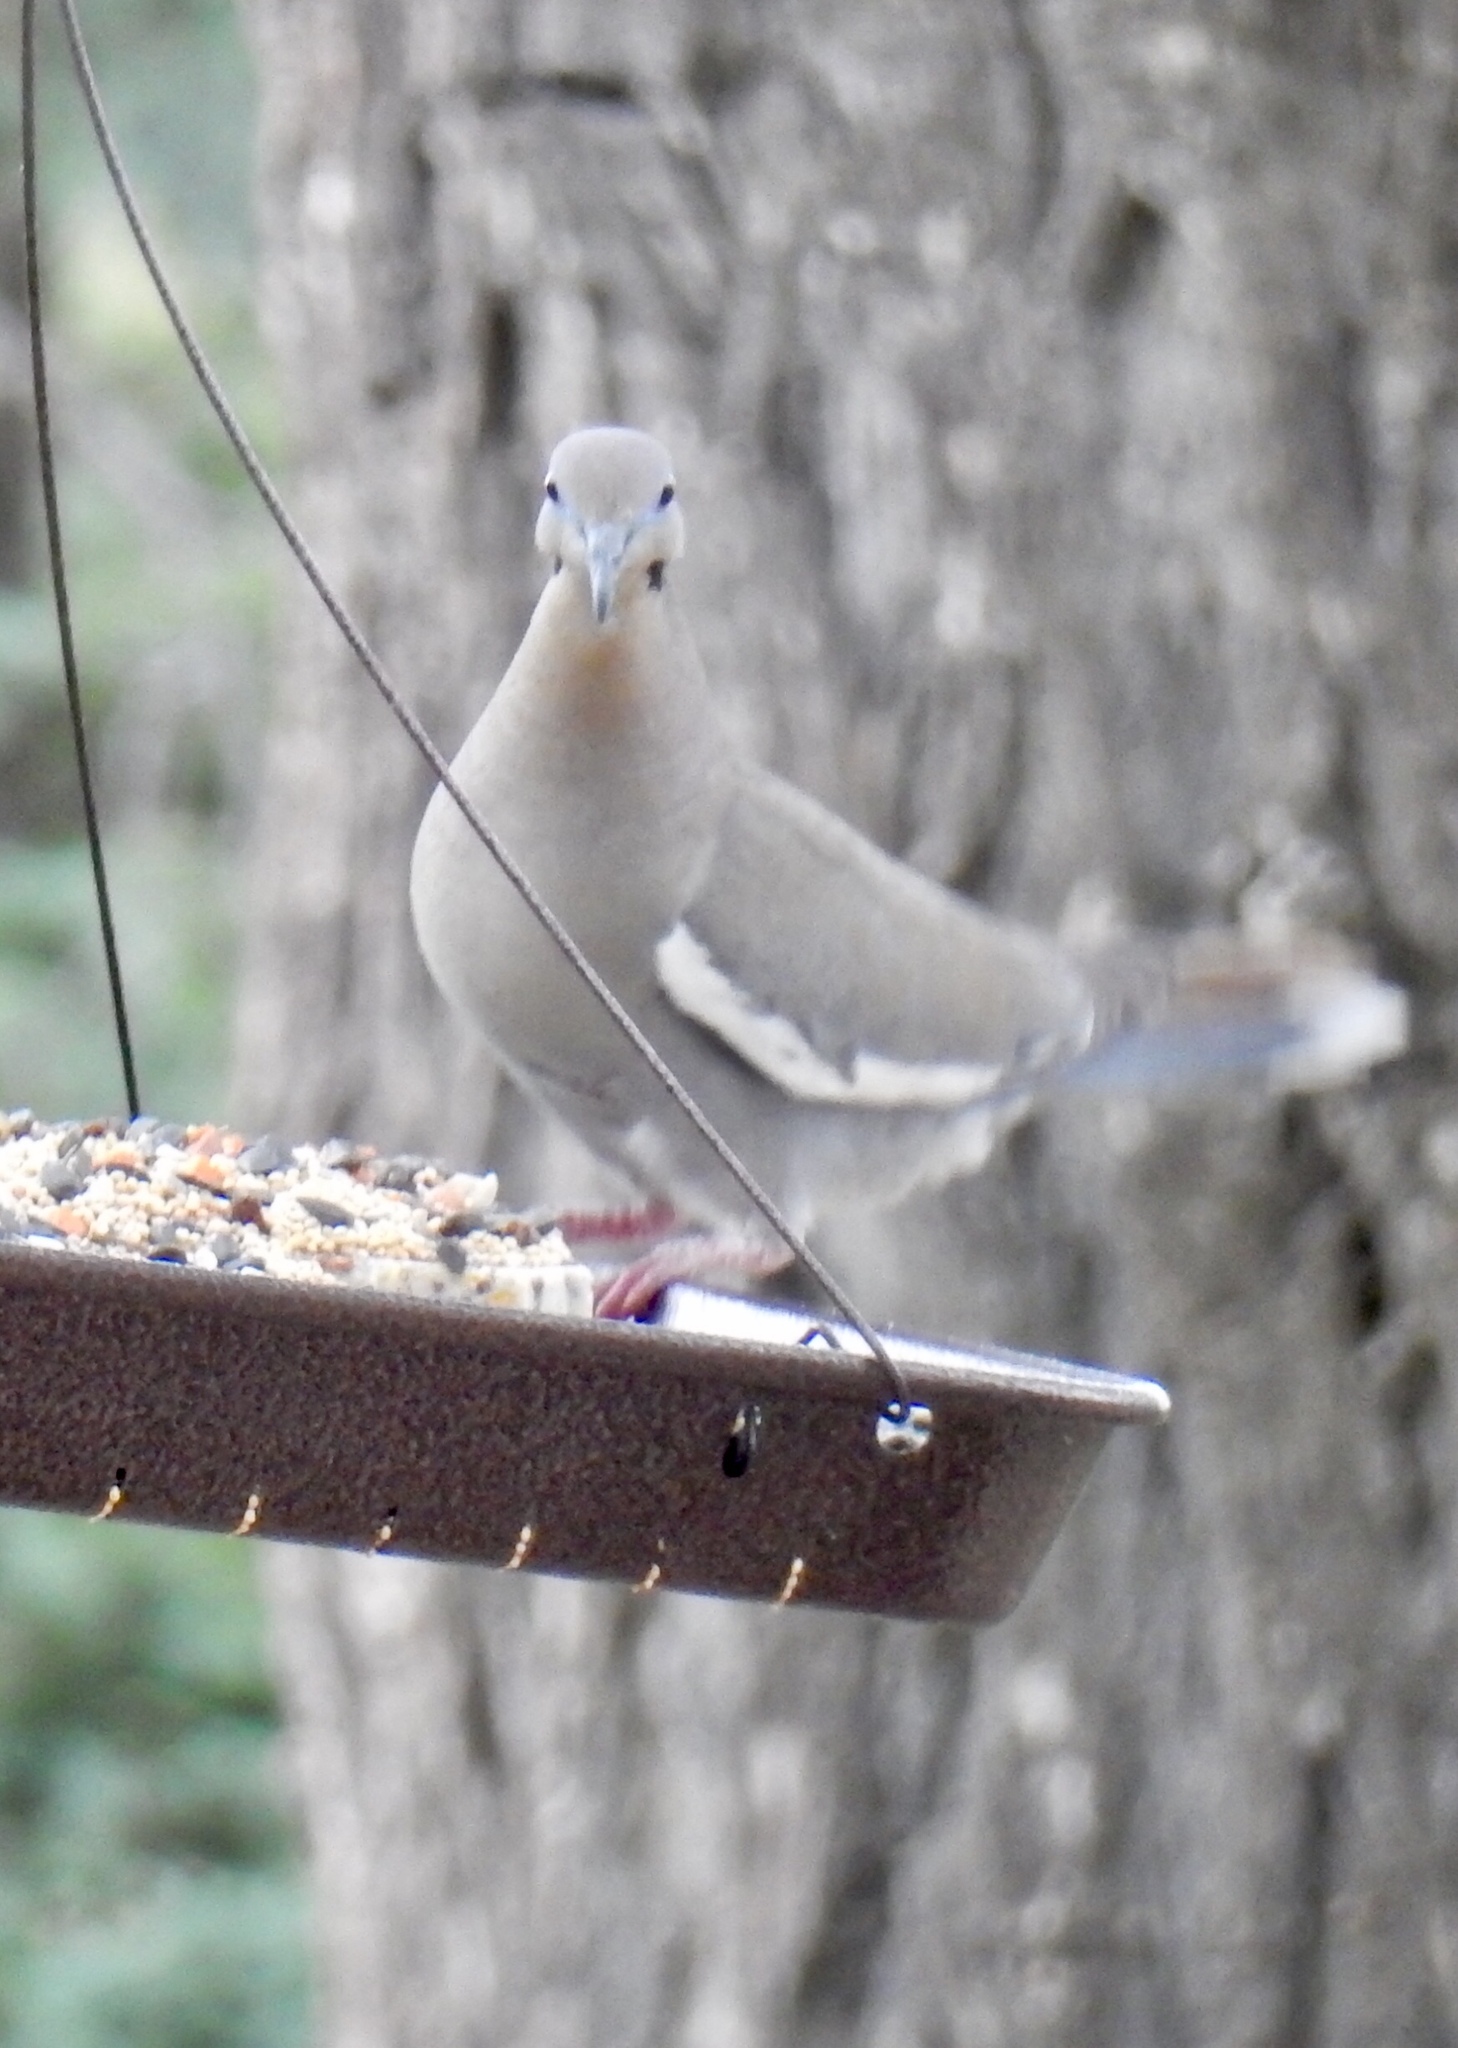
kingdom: Animalia
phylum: Chordata
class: Aves
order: Columbiformes
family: Columbidae
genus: Zenaida
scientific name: Zenaida asiatica
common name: White-winged dove
